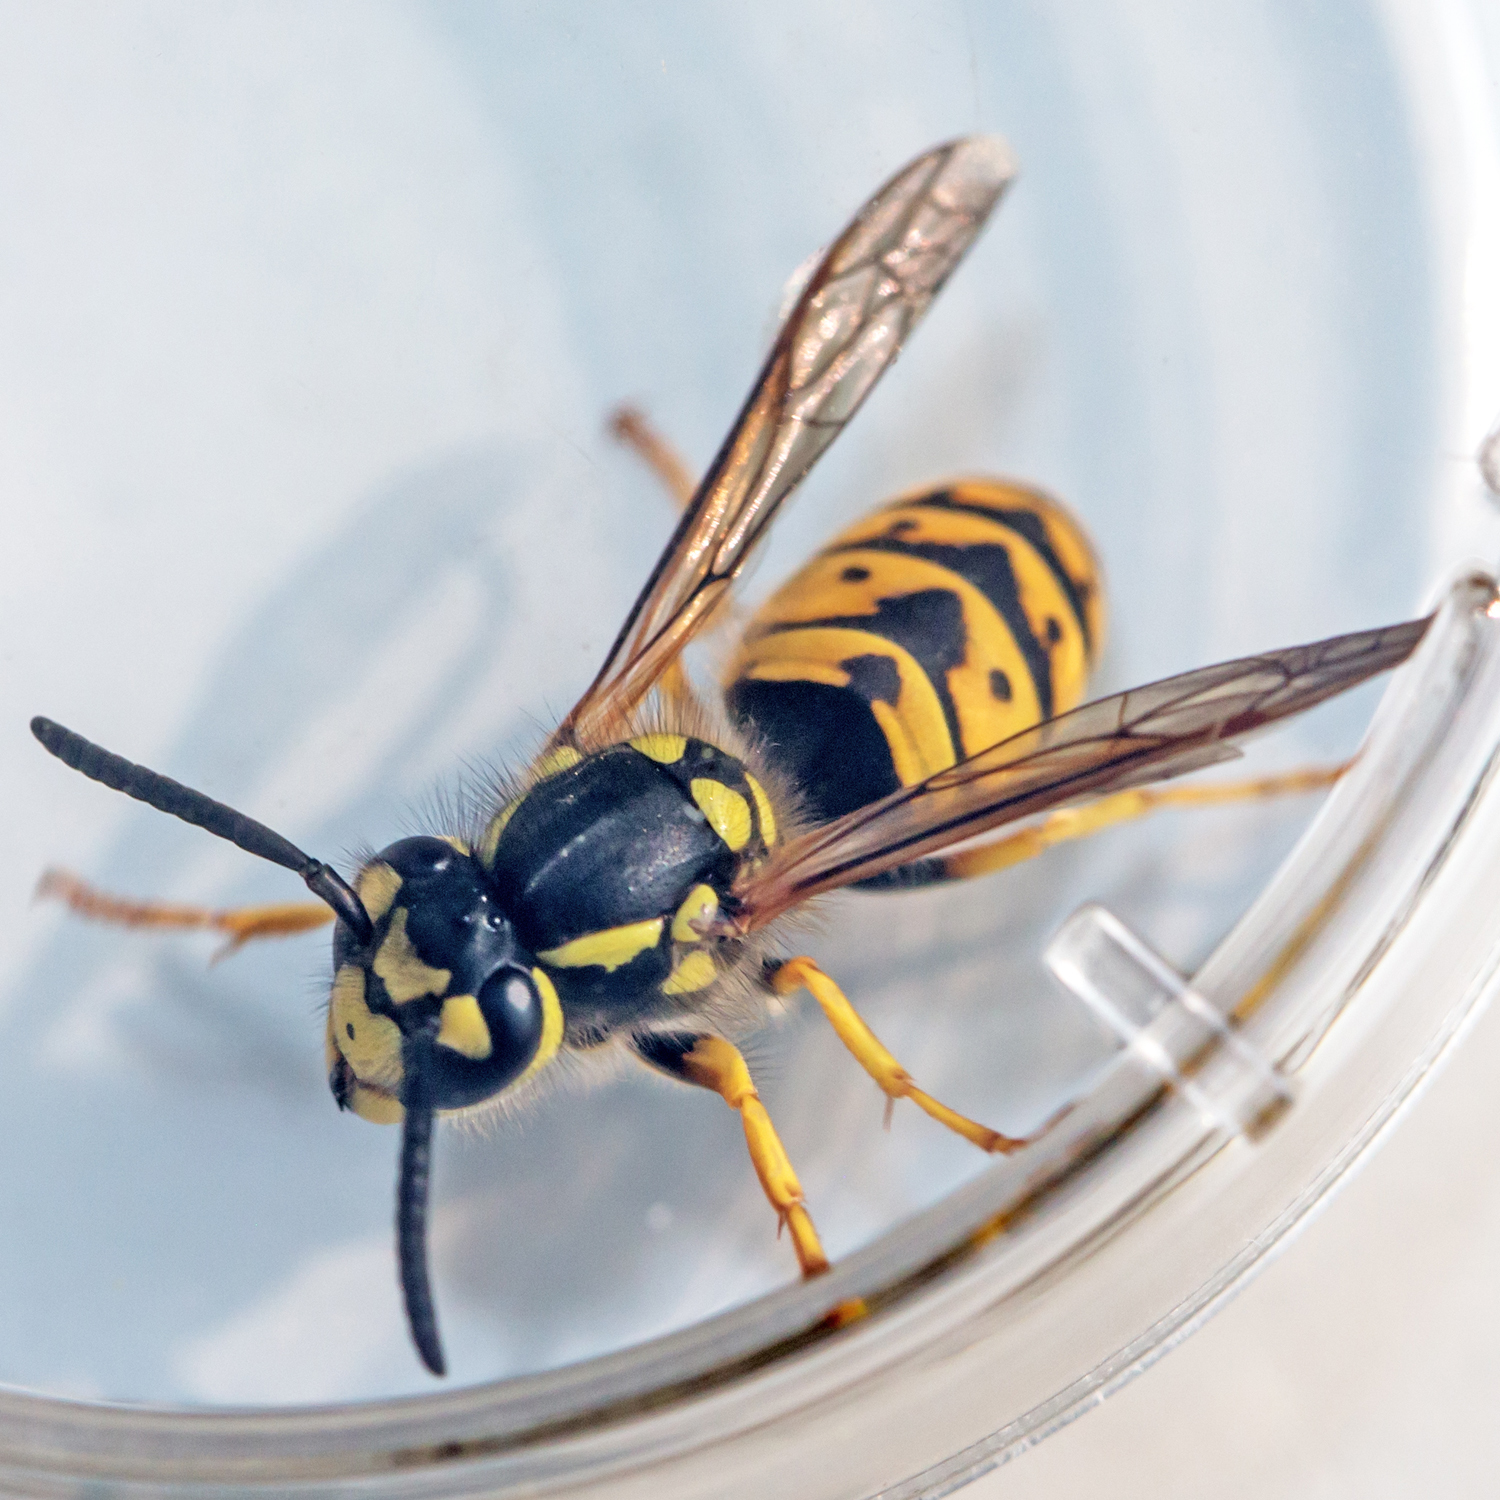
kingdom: Animalia
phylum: Arthropoda
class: Insecta
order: Hymenoptera
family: Vespidae
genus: Vespula
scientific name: Vespula germanica
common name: German wasp
